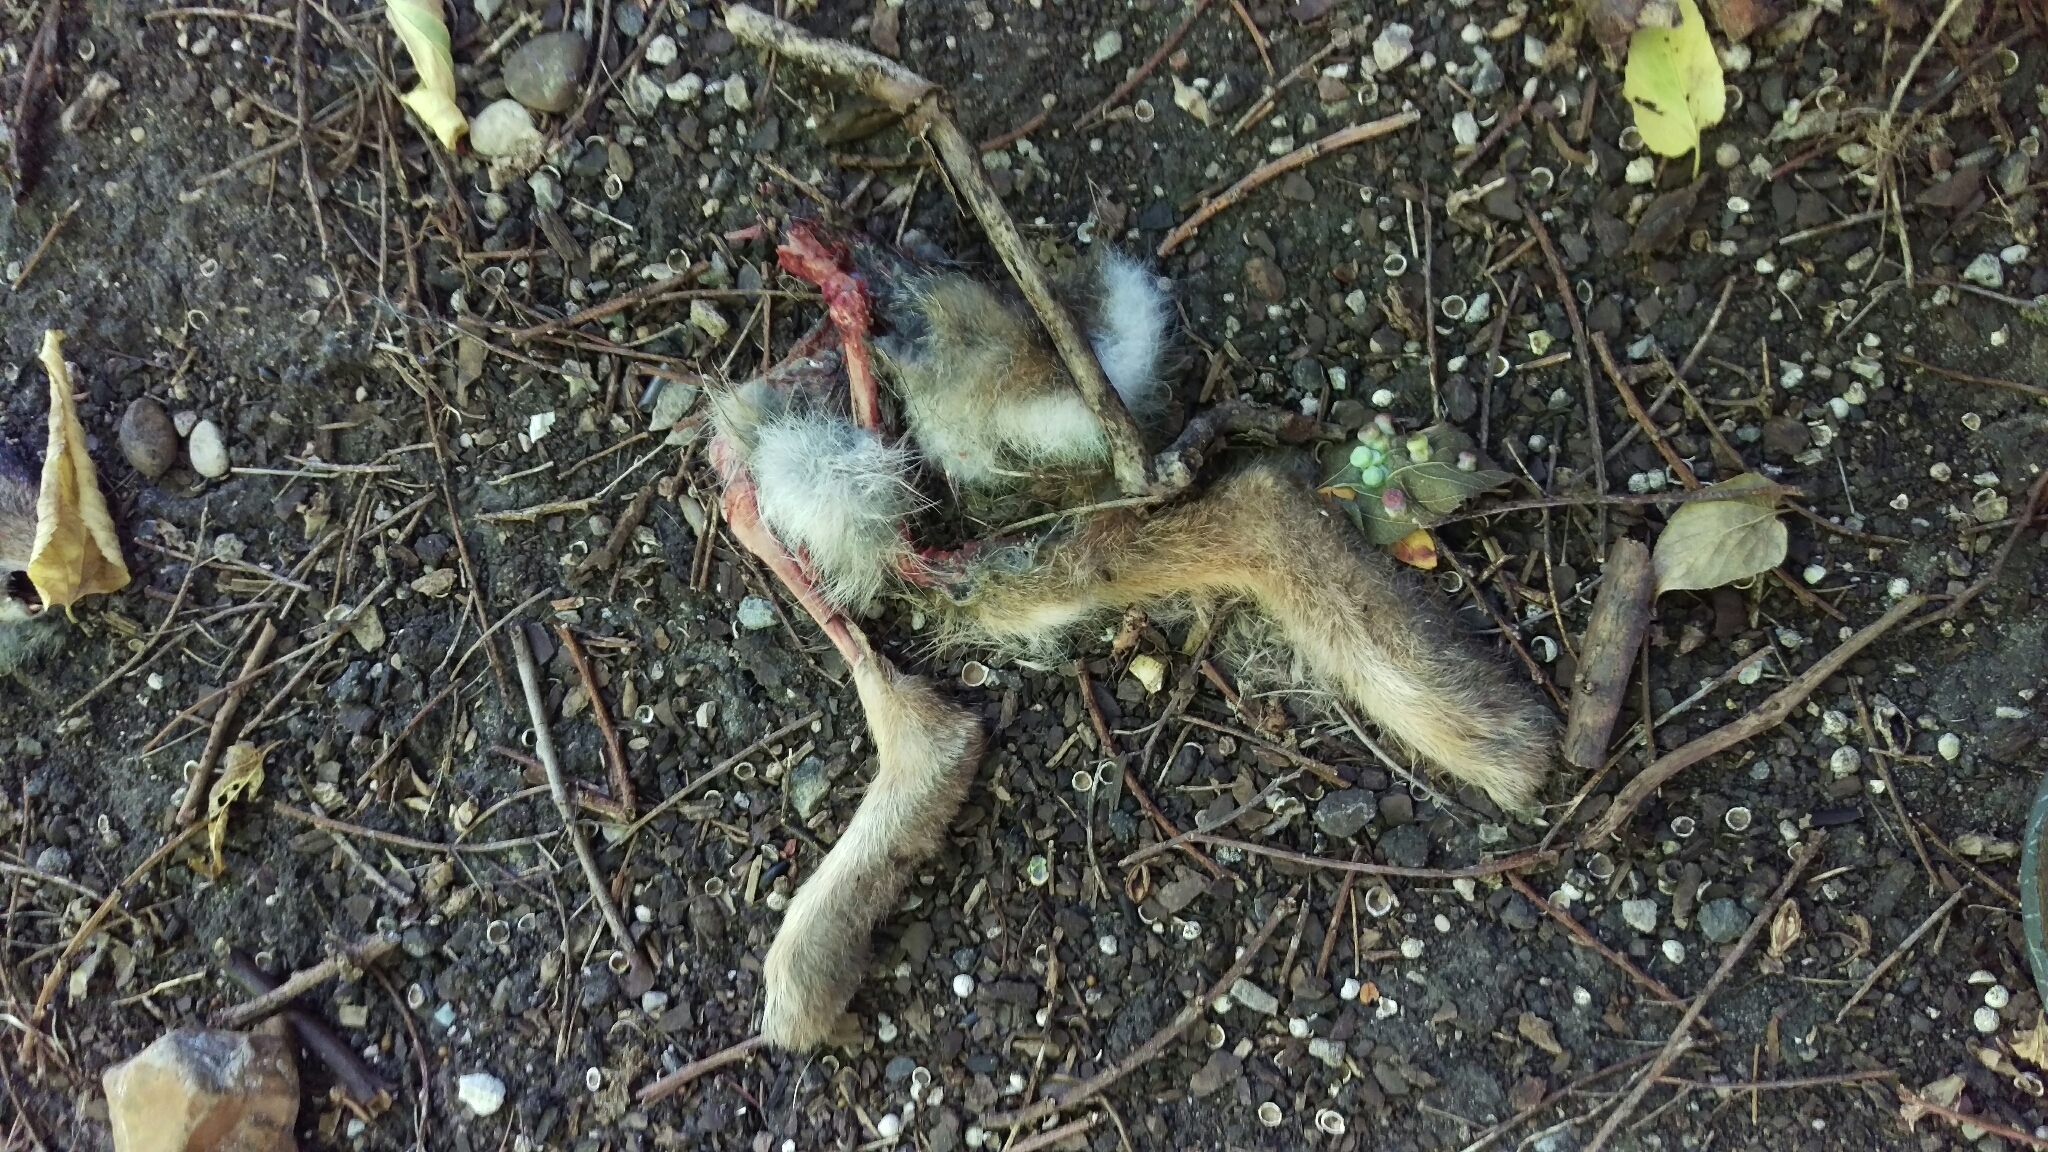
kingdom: Animalia
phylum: Chordata
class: Mammalia
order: Lagomorpha
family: Leporidae
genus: Sylvilagus
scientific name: Sylvilagus floridanus
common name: Eastern cottontail
